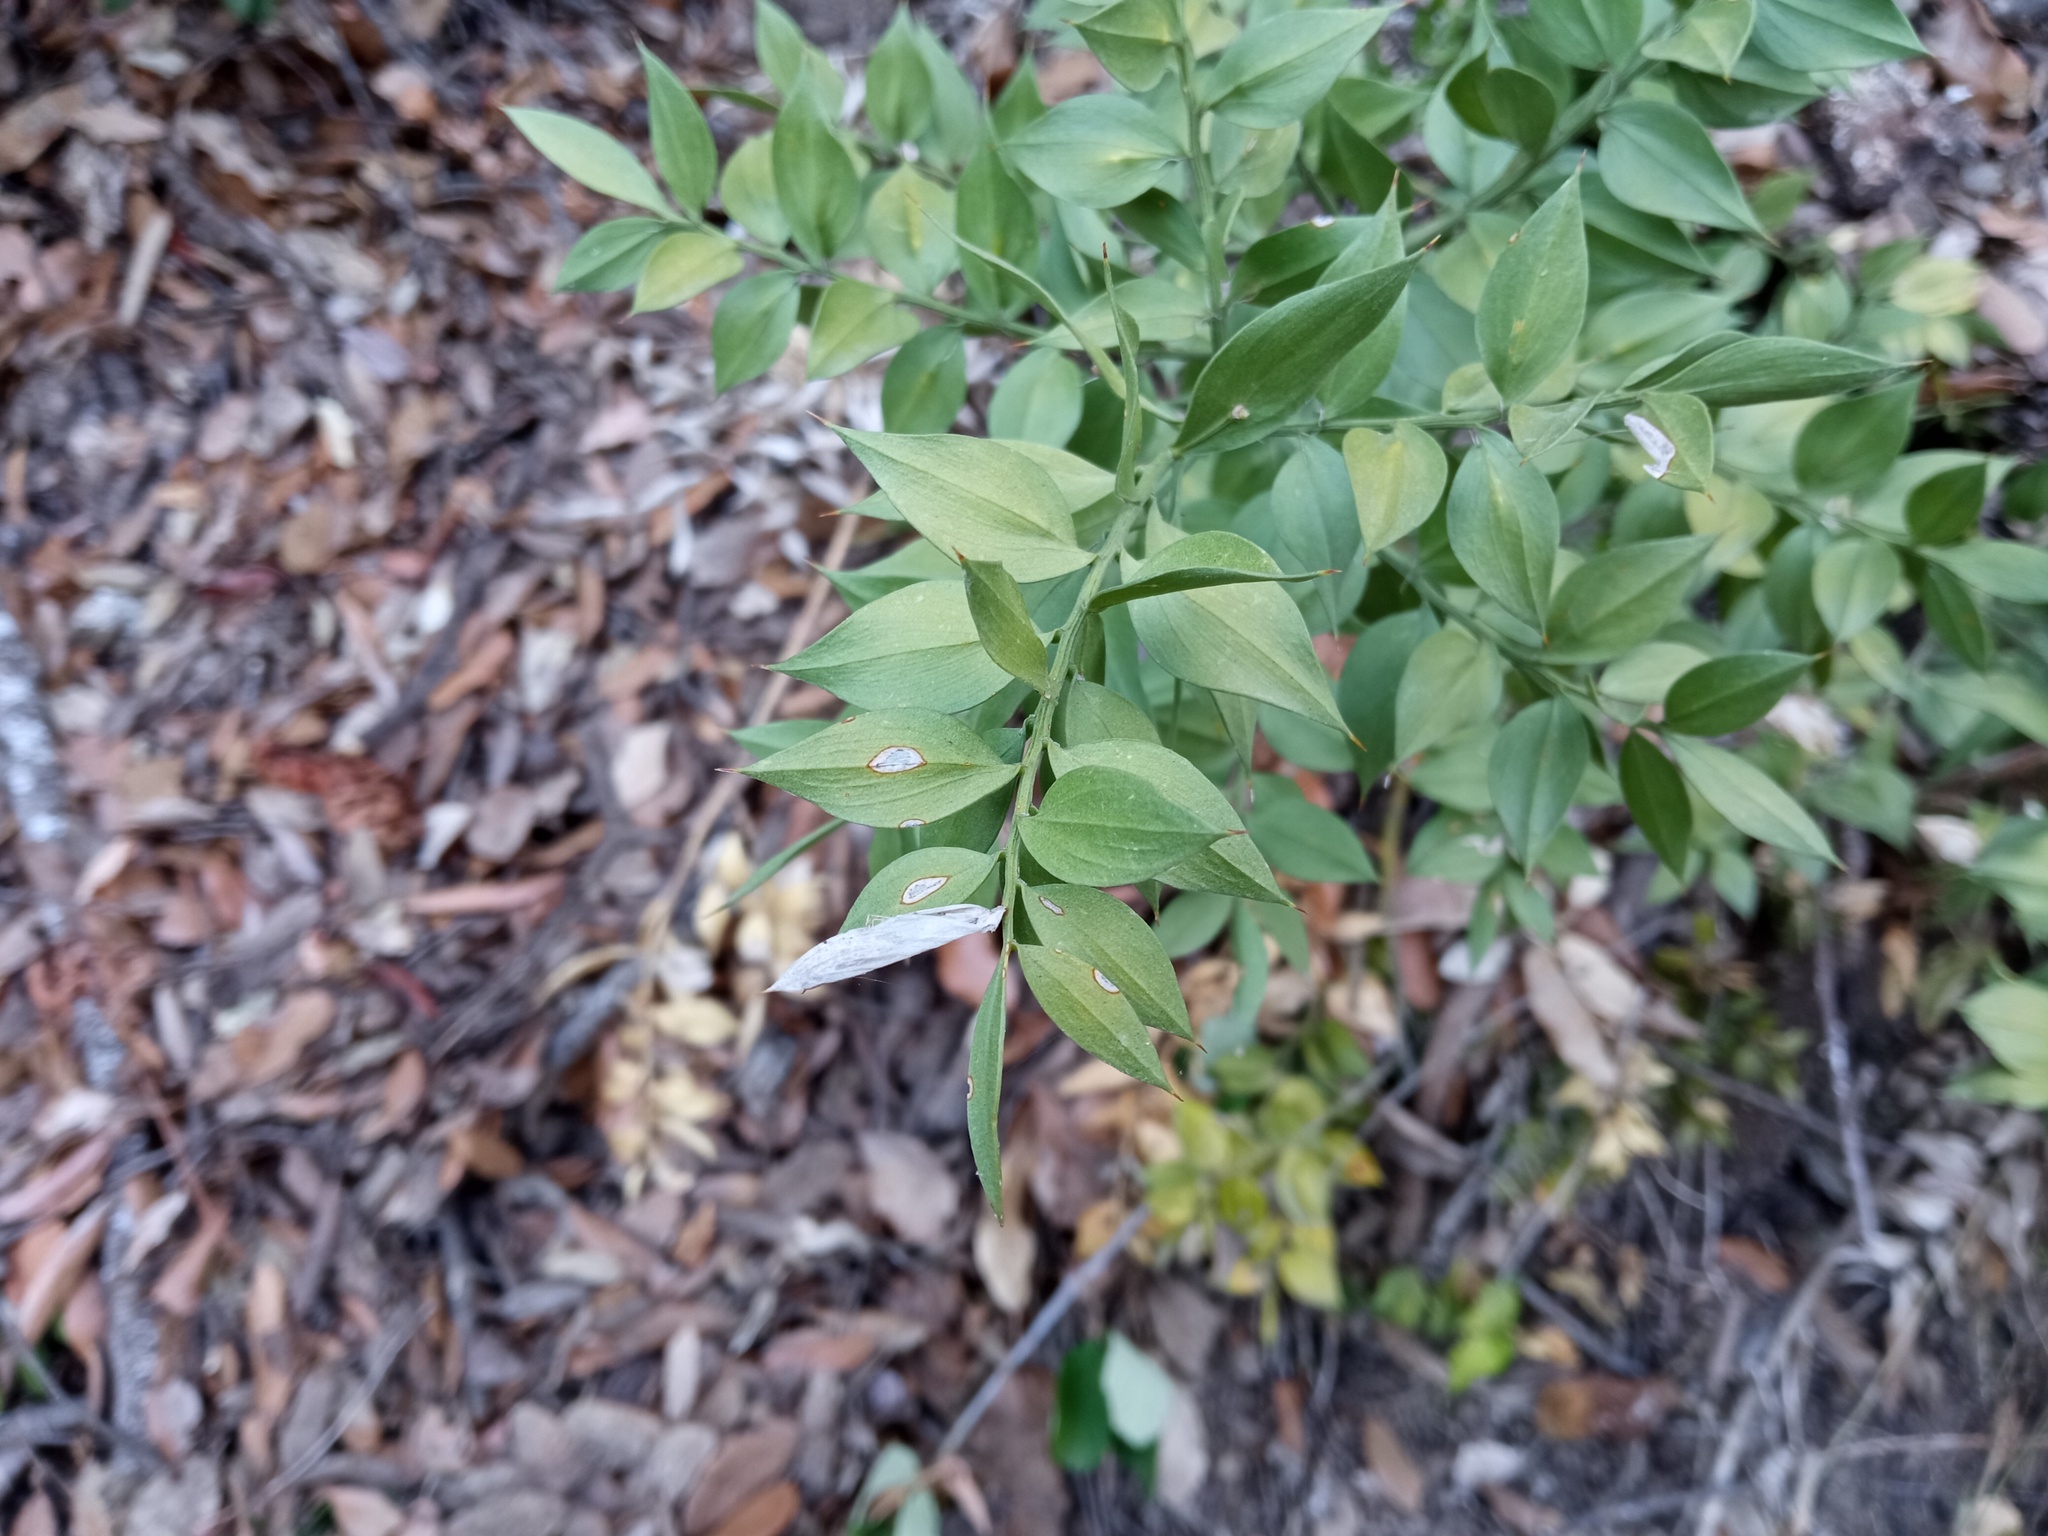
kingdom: Plantae
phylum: Tracheophyta
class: Liliopsida
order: Asparagales
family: Asparagaceae
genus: Ruscus
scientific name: Ruscus aculeatus
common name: Butcher's-broom
